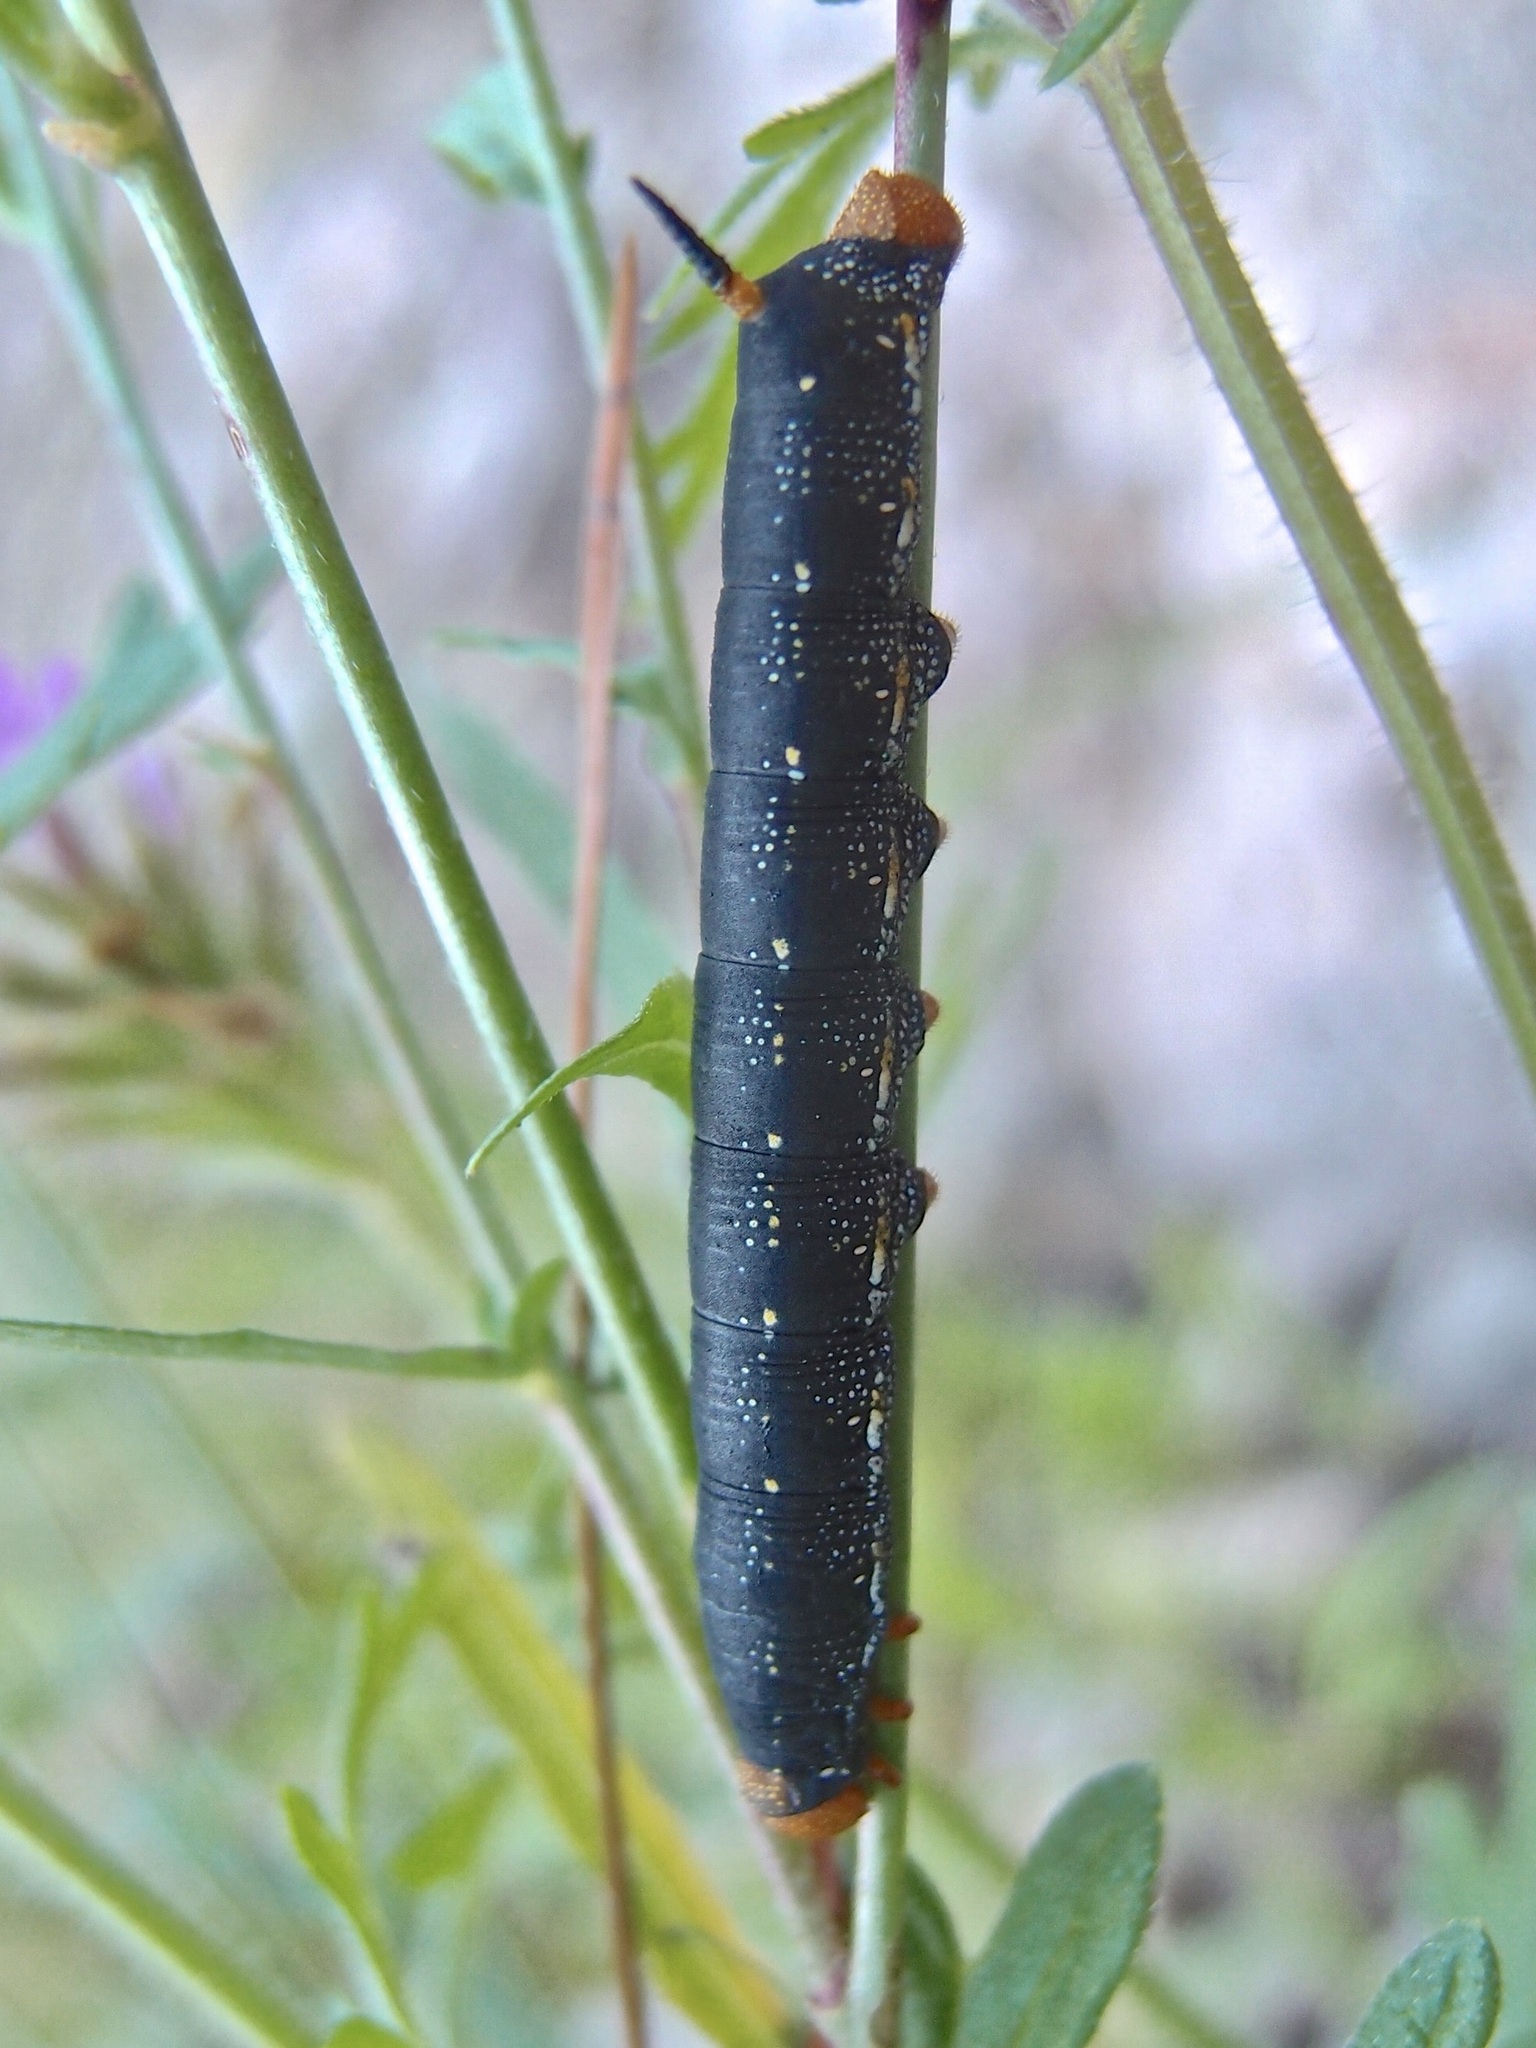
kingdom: Animalia
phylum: Arthropoda
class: Insecta
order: Lepidoptera
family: Sphingidae
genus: Hyles
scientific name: Hyles lineata
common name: White-lined sphinx
